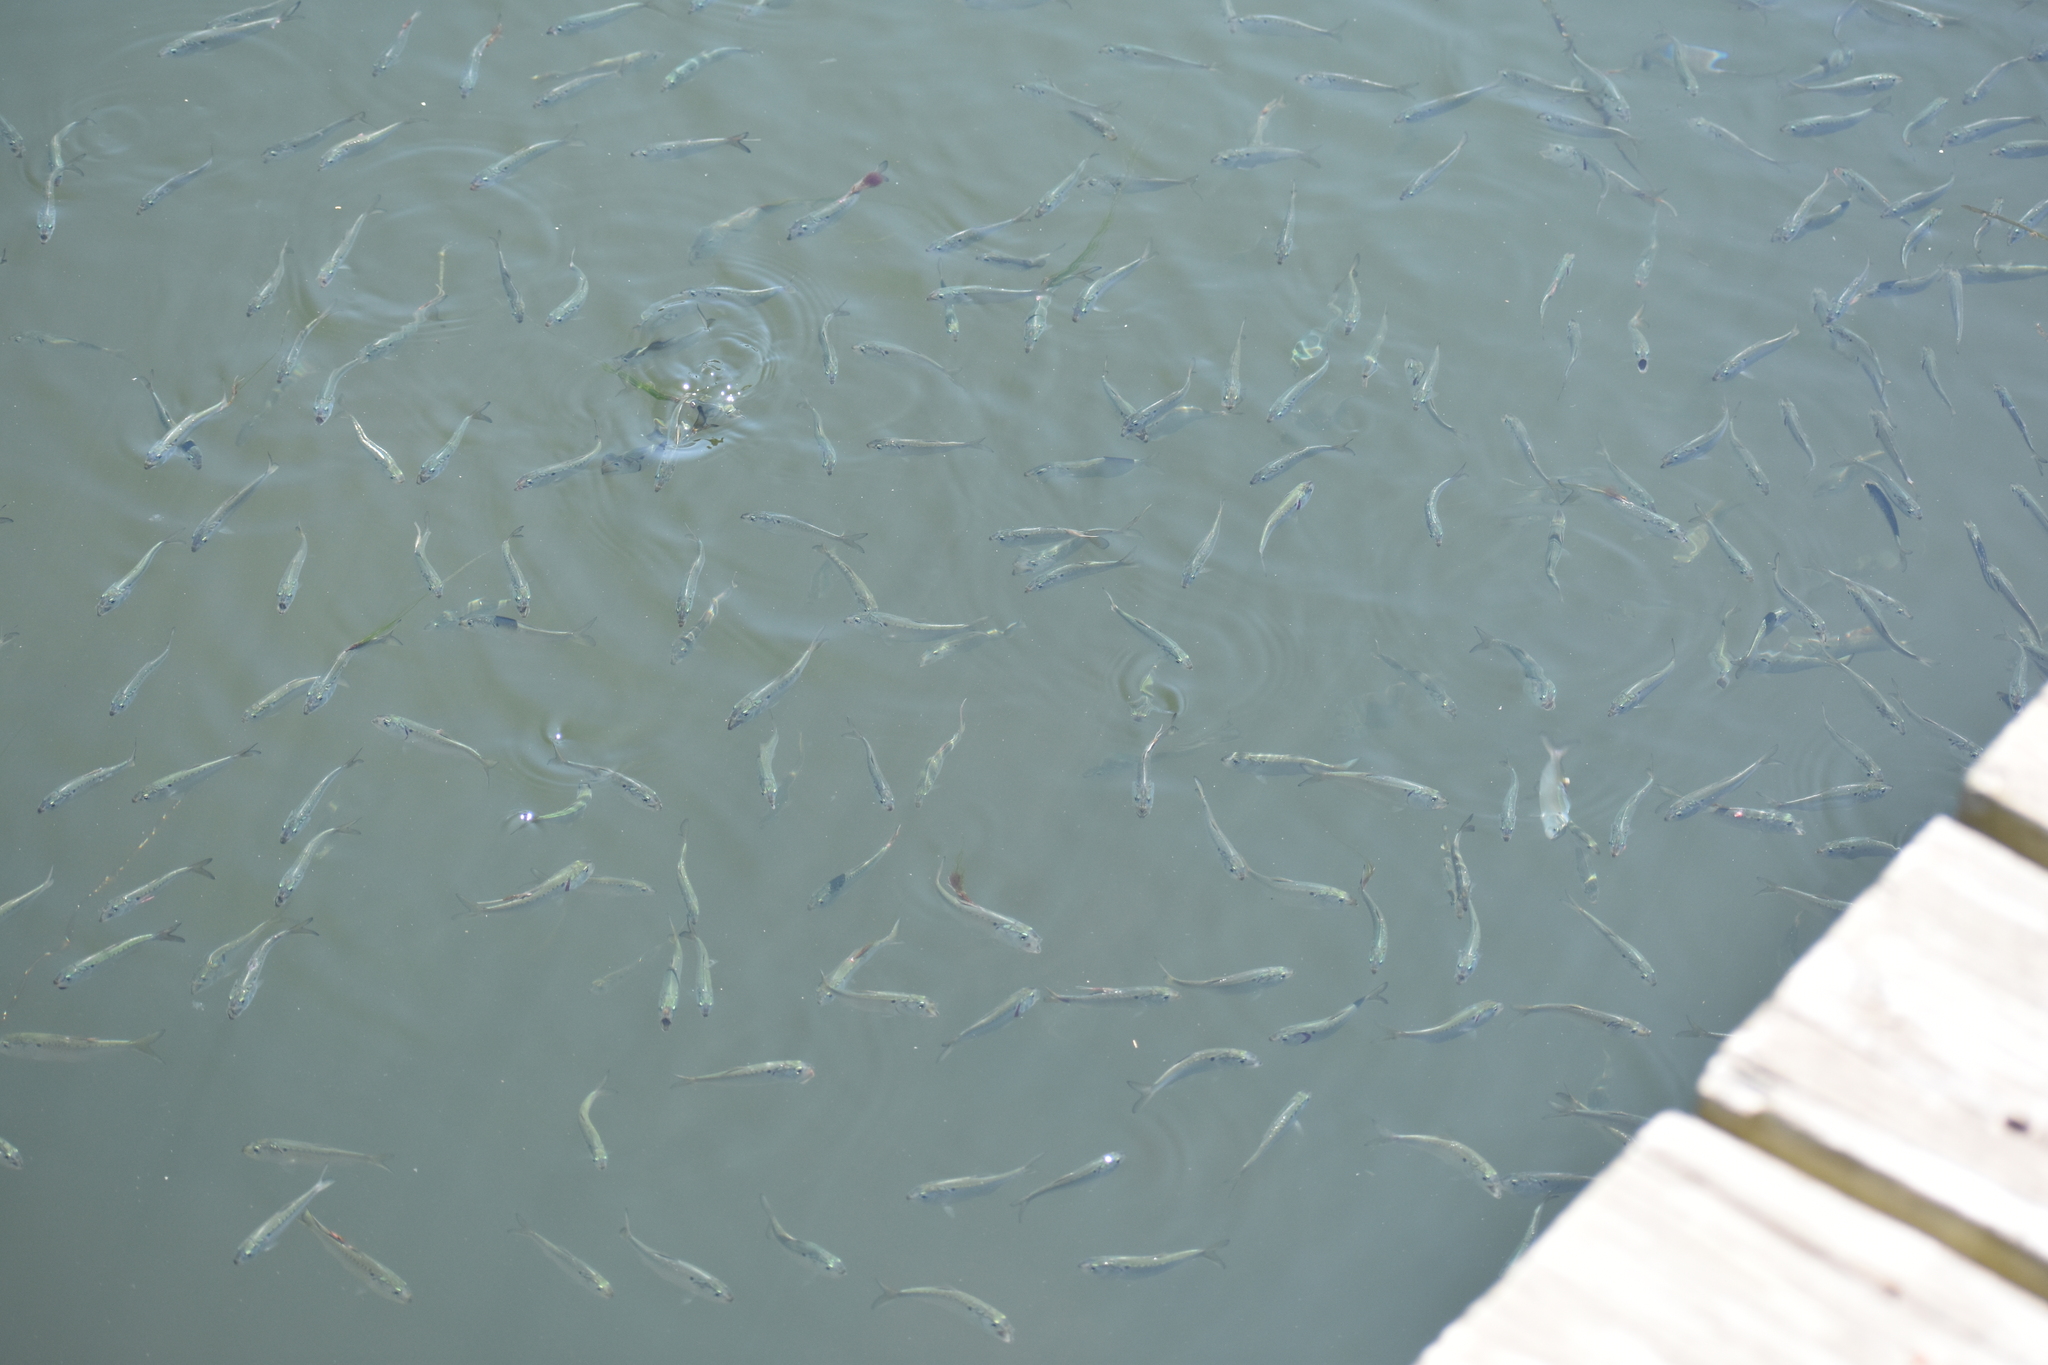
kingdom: Animalia
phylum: Chordata
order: Clupeiformes
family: Clupeidae
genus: Brevoortia
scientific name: Brevoortia tyrannus
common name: Atlantic menhaden
